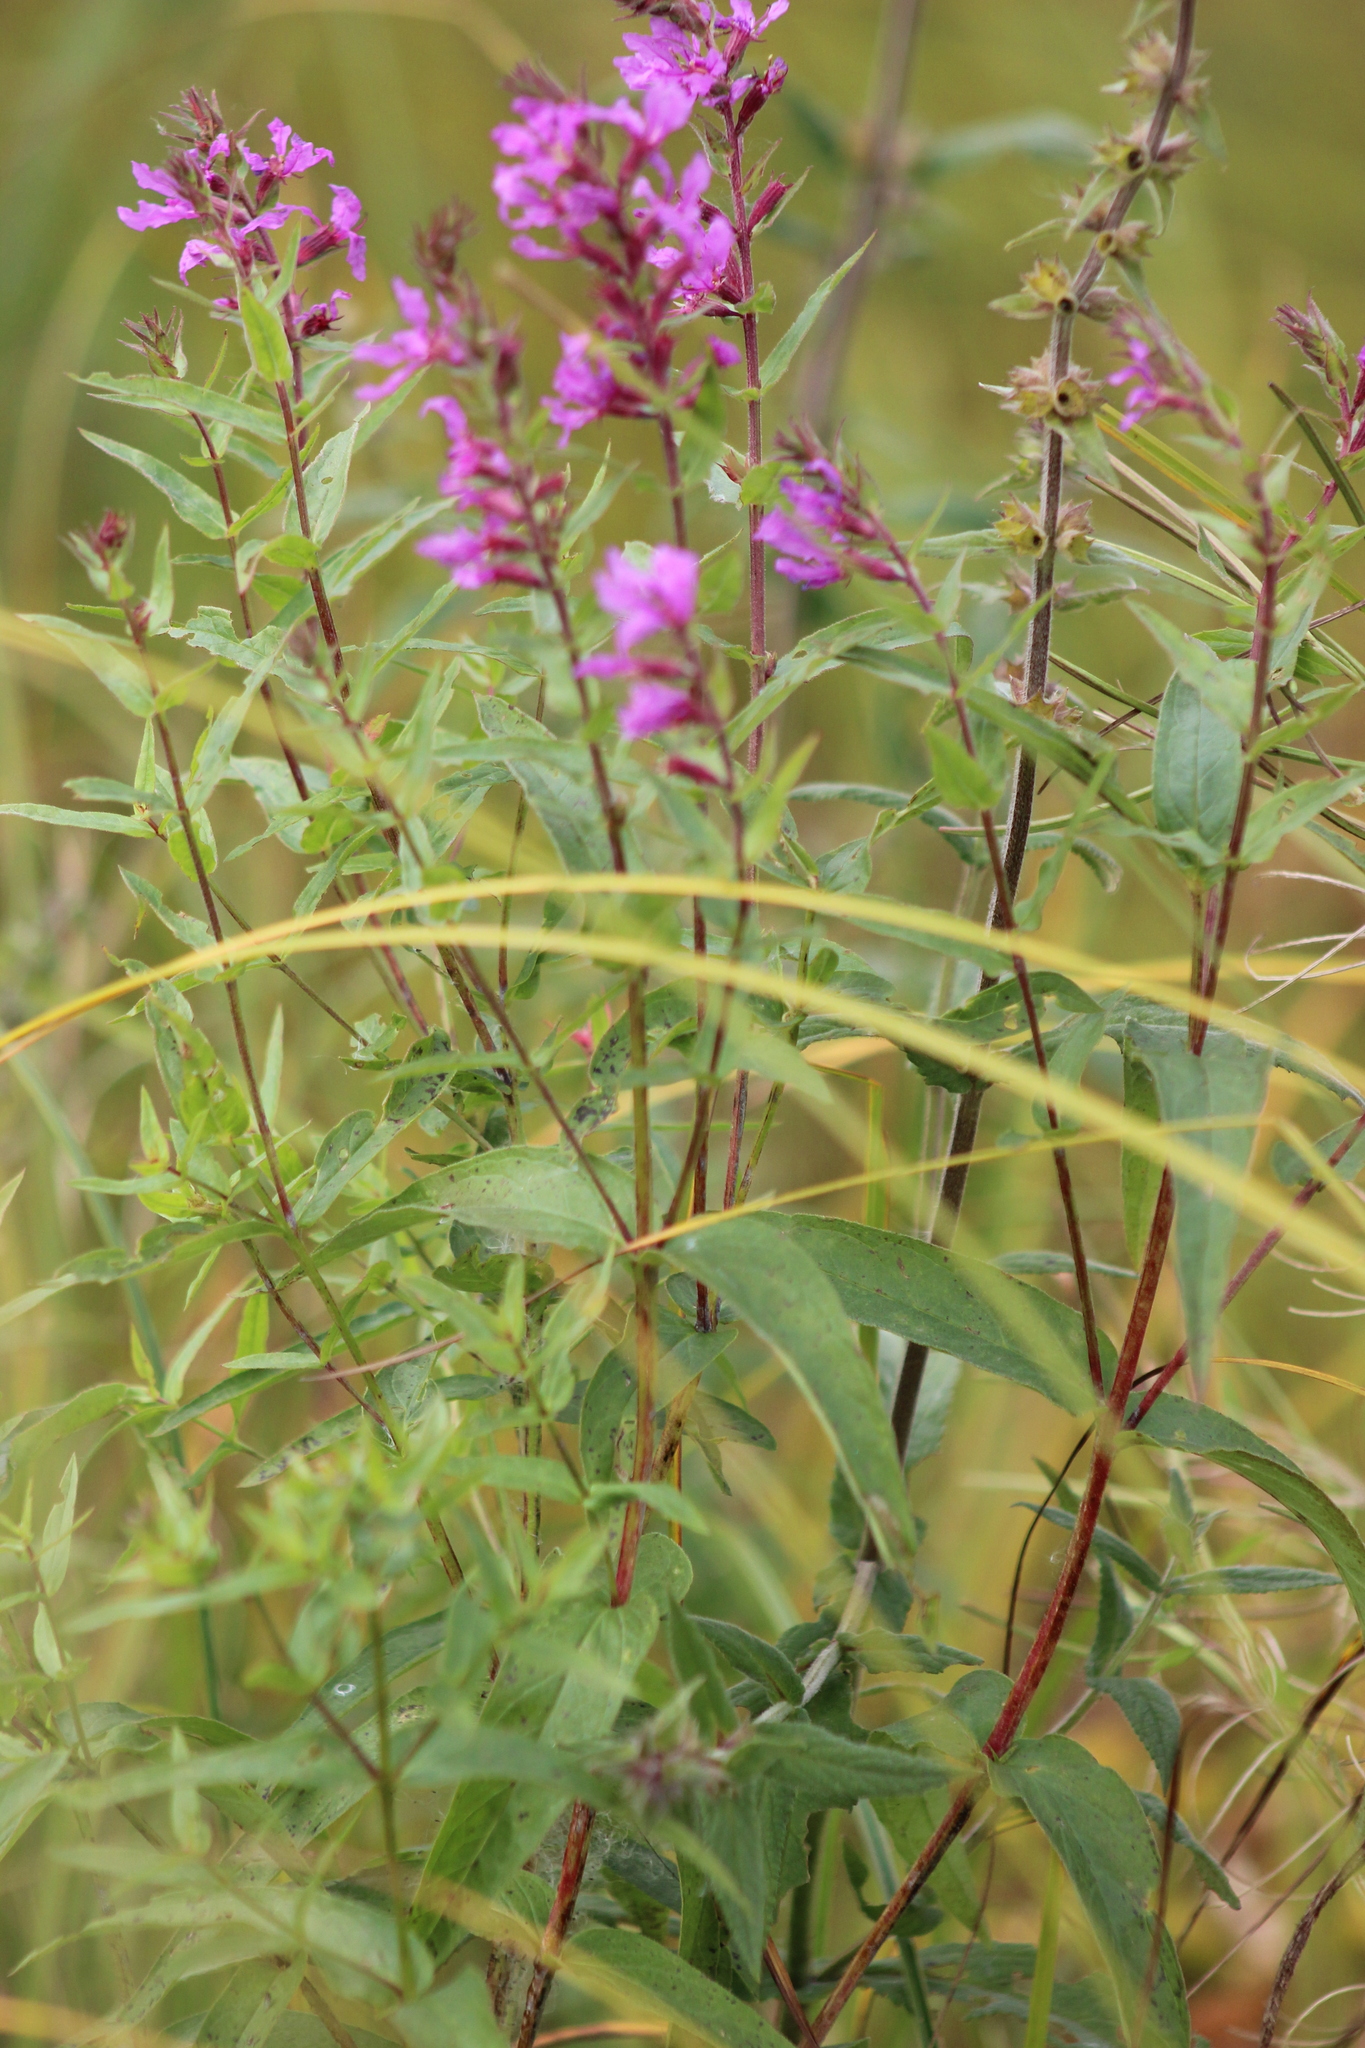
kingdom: Plantae
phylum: Tracheophyta
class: Magnoliopsida
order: Myrtales
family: Lythraceae
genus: Lythrum
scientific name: Lythrum salicaria
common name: Purple loosestrife
